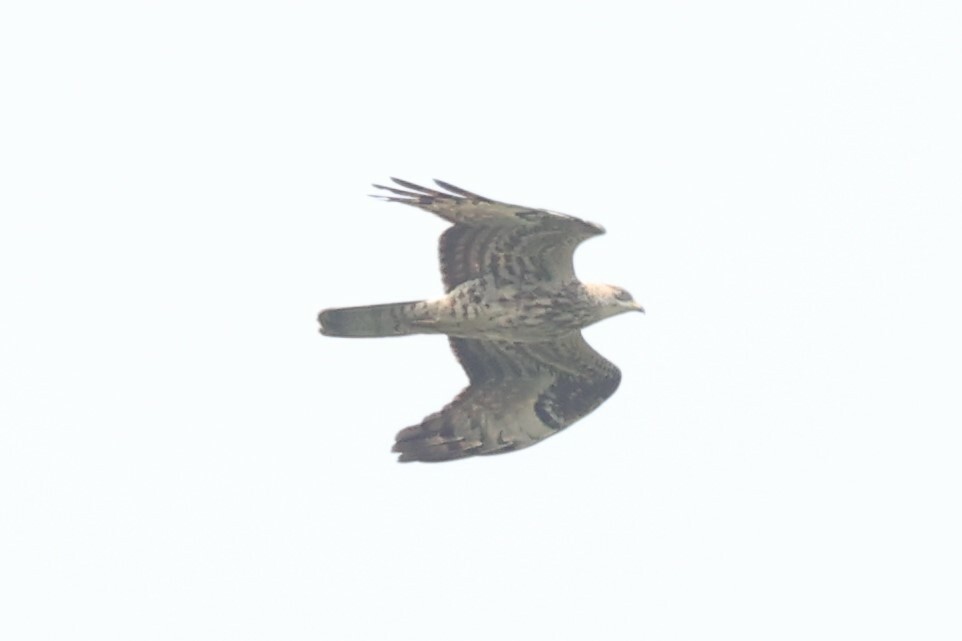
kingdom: Animalia
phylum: Chordata
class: Aves
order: Accipitriformes
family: Accipitridae
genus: Pernis
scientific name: Pernis apivorus
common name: European honey buzzard
